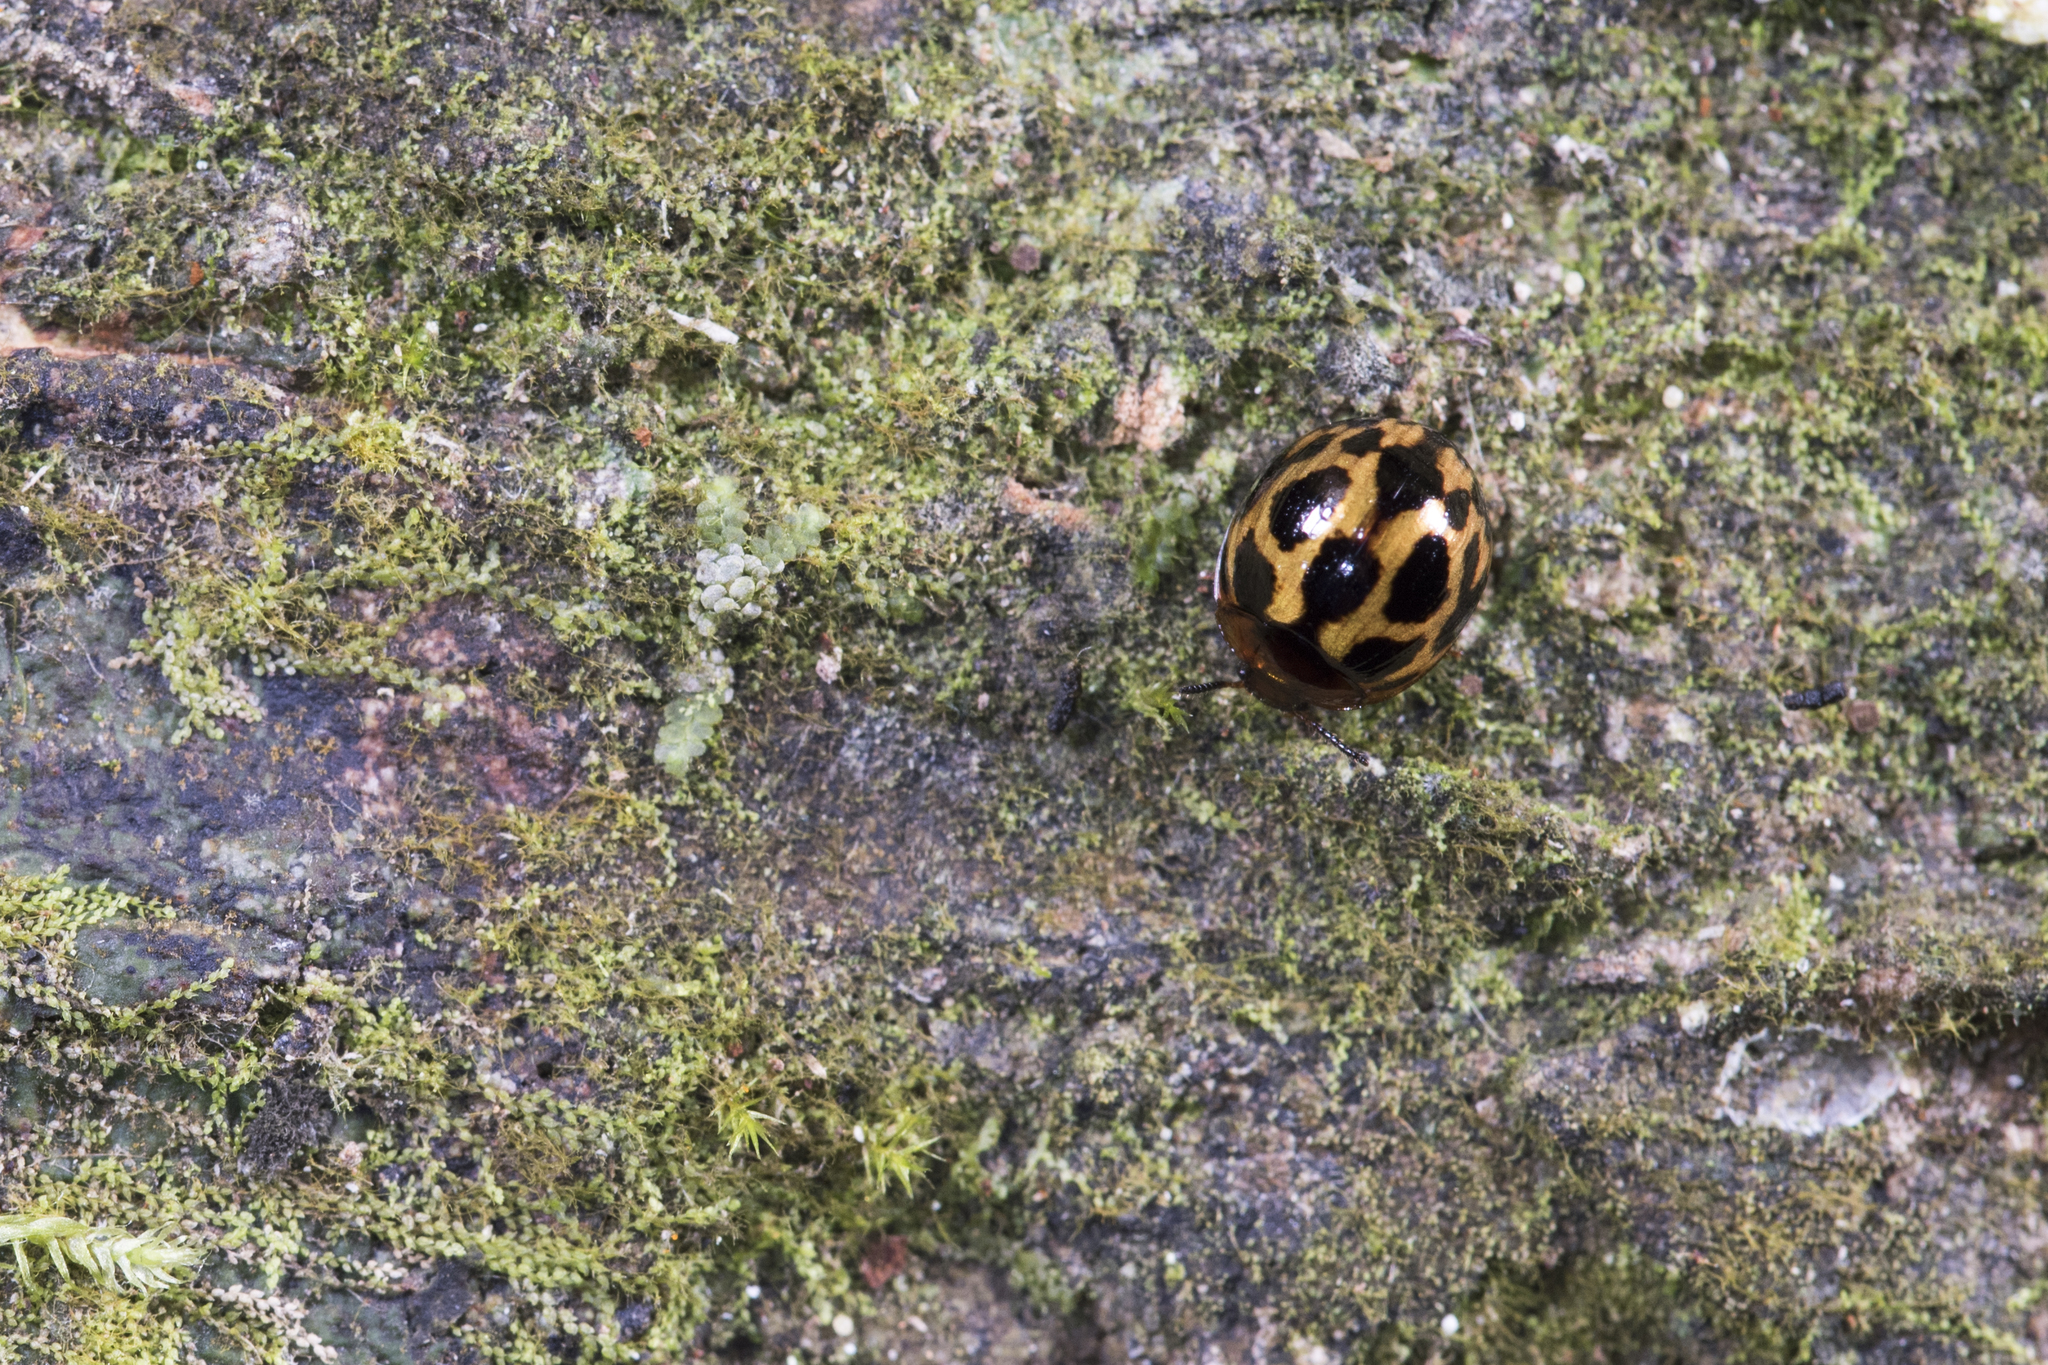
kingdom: Animalia
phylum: Arthropoda
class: Insecta
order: Coleoptera
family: Tenebrionidae
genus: Derispia
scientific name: Derispia kondoi
